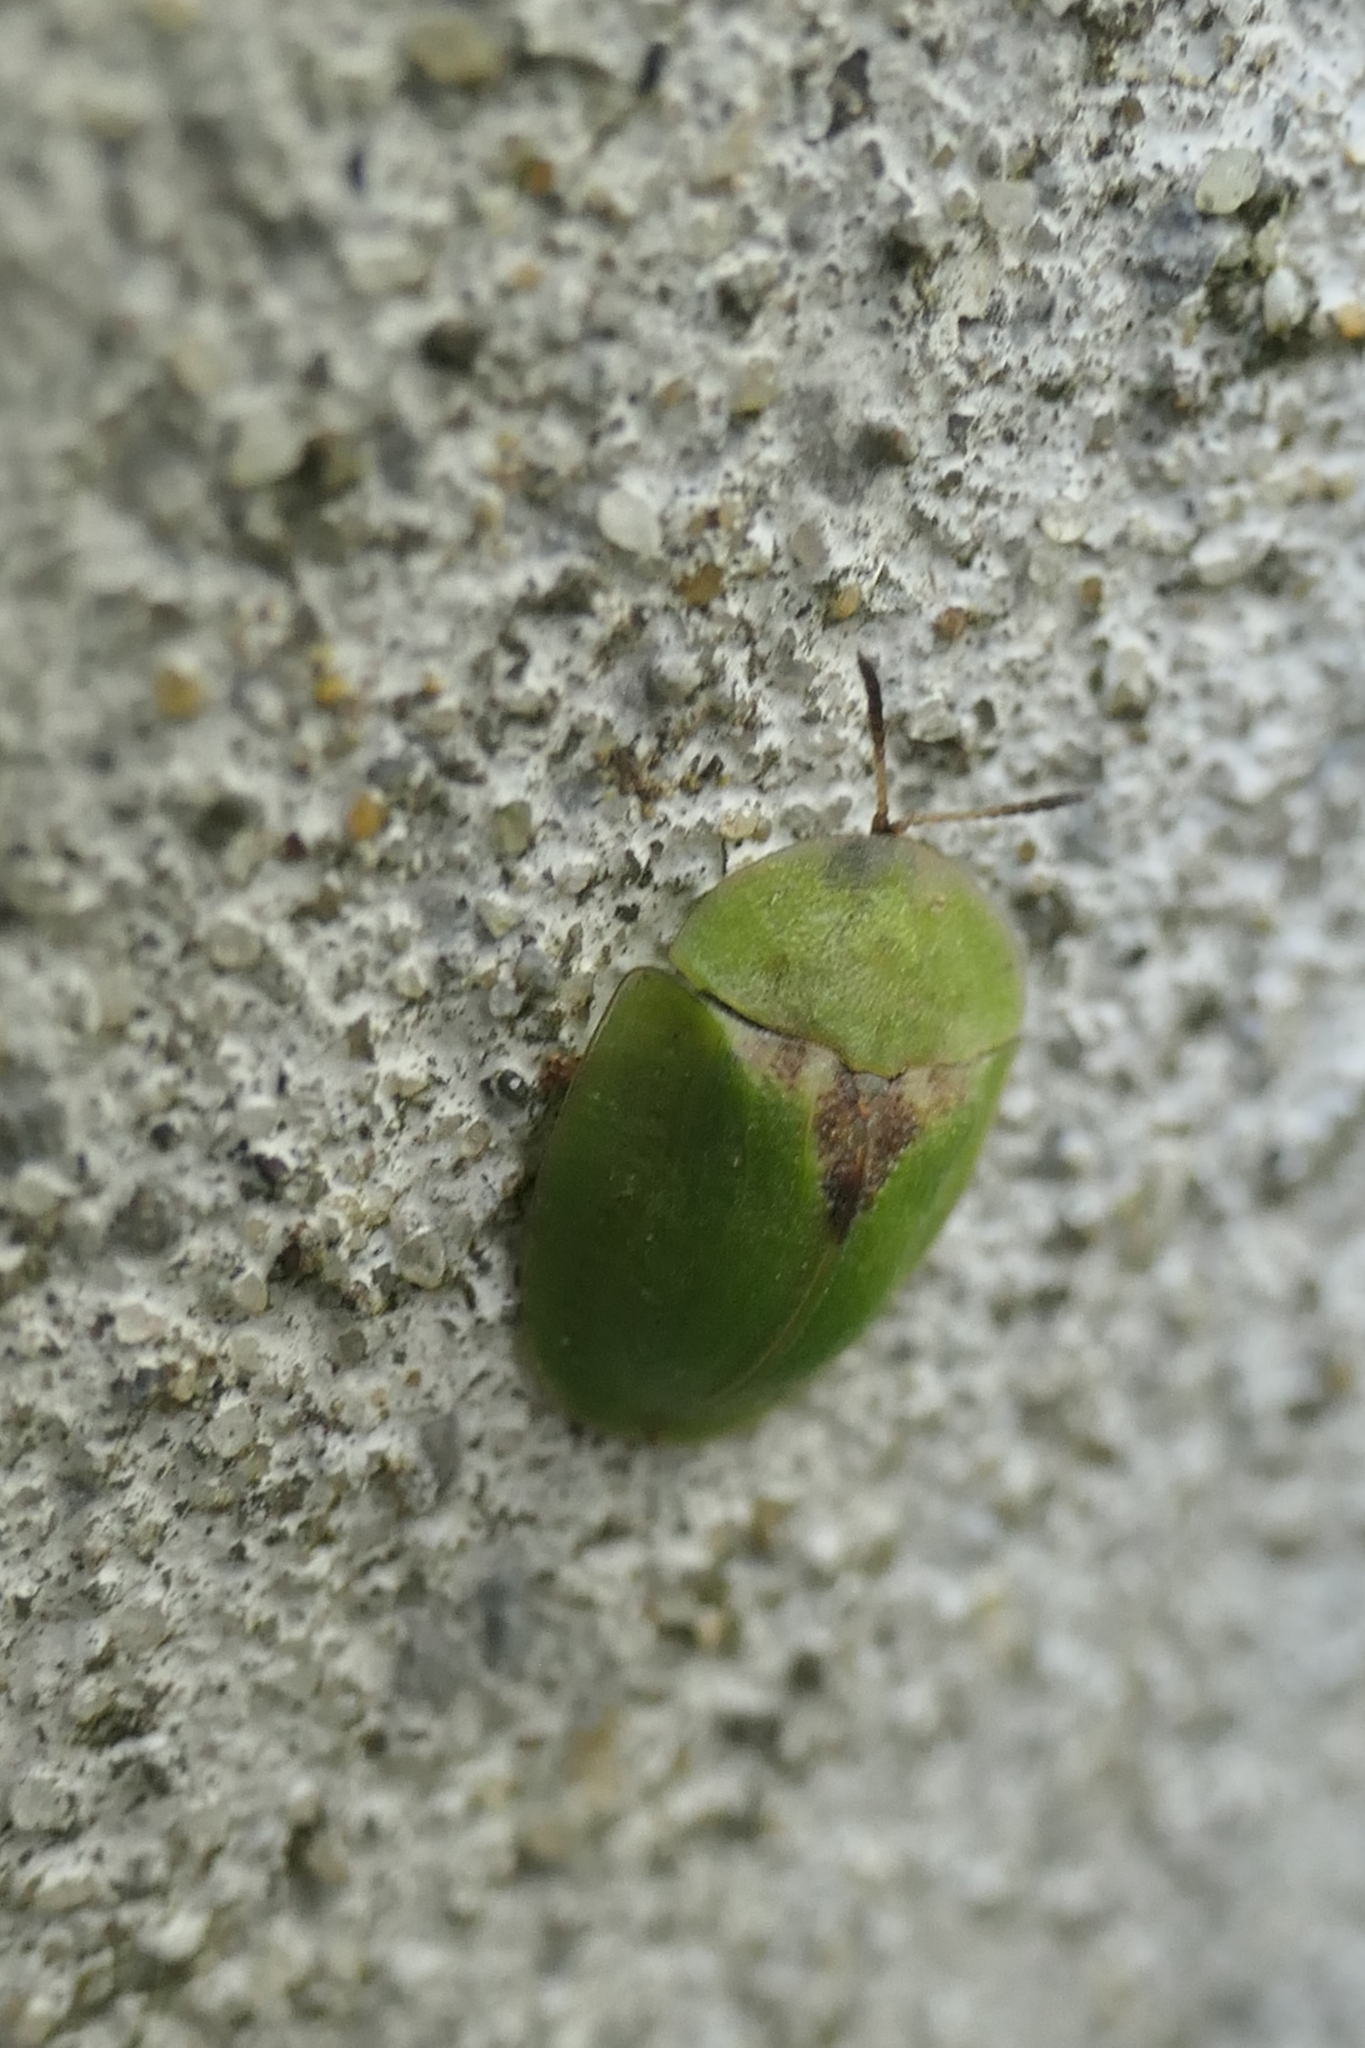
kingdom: Animalia
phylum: Arthropoda
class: Insecta
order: Coleoptera
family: Chrysomelidae
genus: Cassida
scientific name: Cassida rubiginosa
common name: Thistle tortoise beetle
